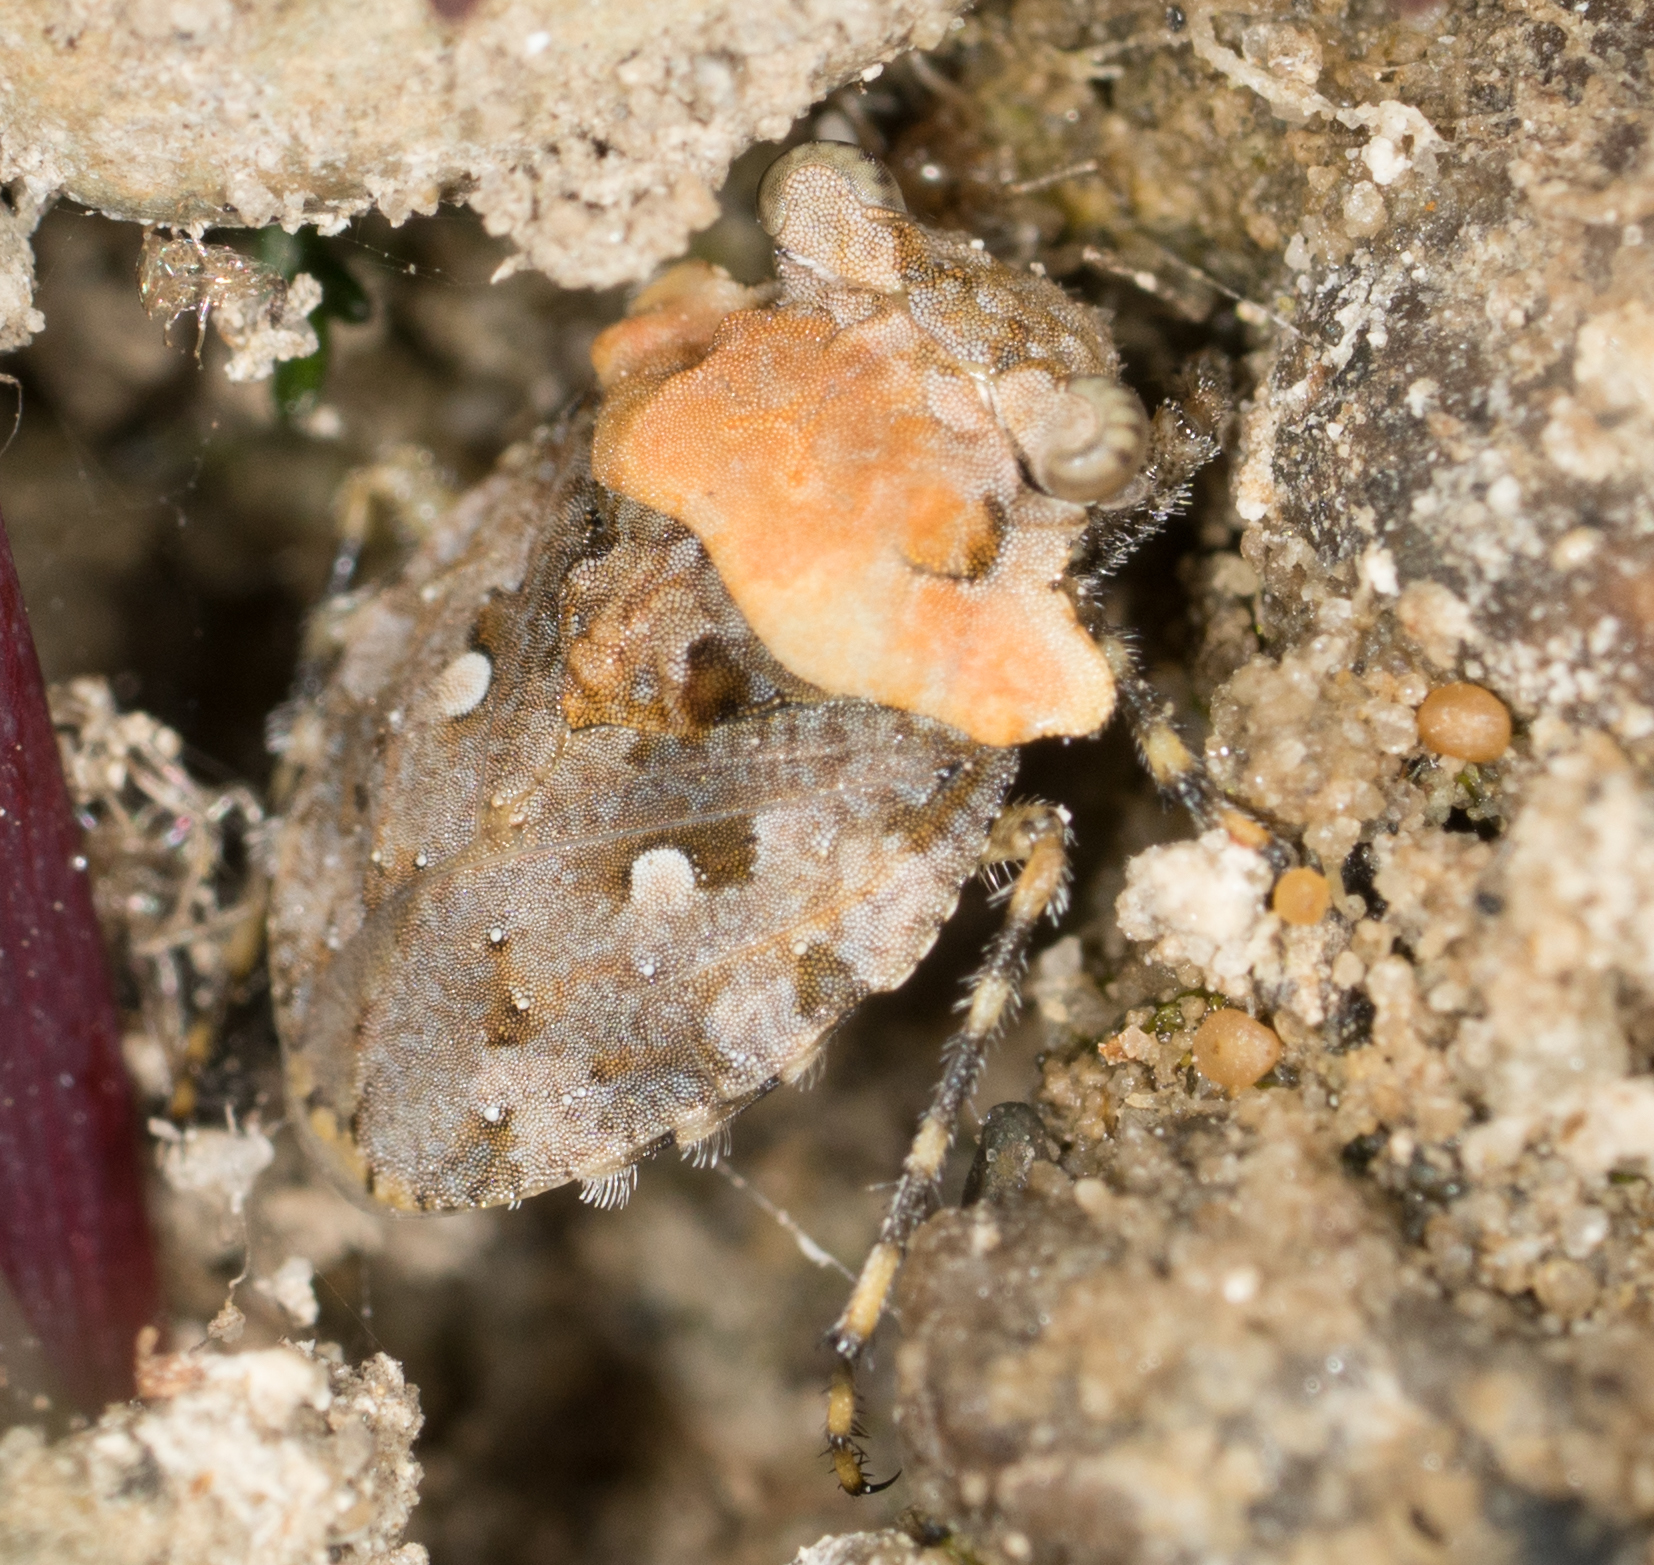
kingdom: Animalia
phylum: Arthropoda
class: Insecta
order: Hemiptera
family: Gelastocoridae
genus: Gelastocoris
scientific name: Gelastocoris oculatus
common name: Toad bug
